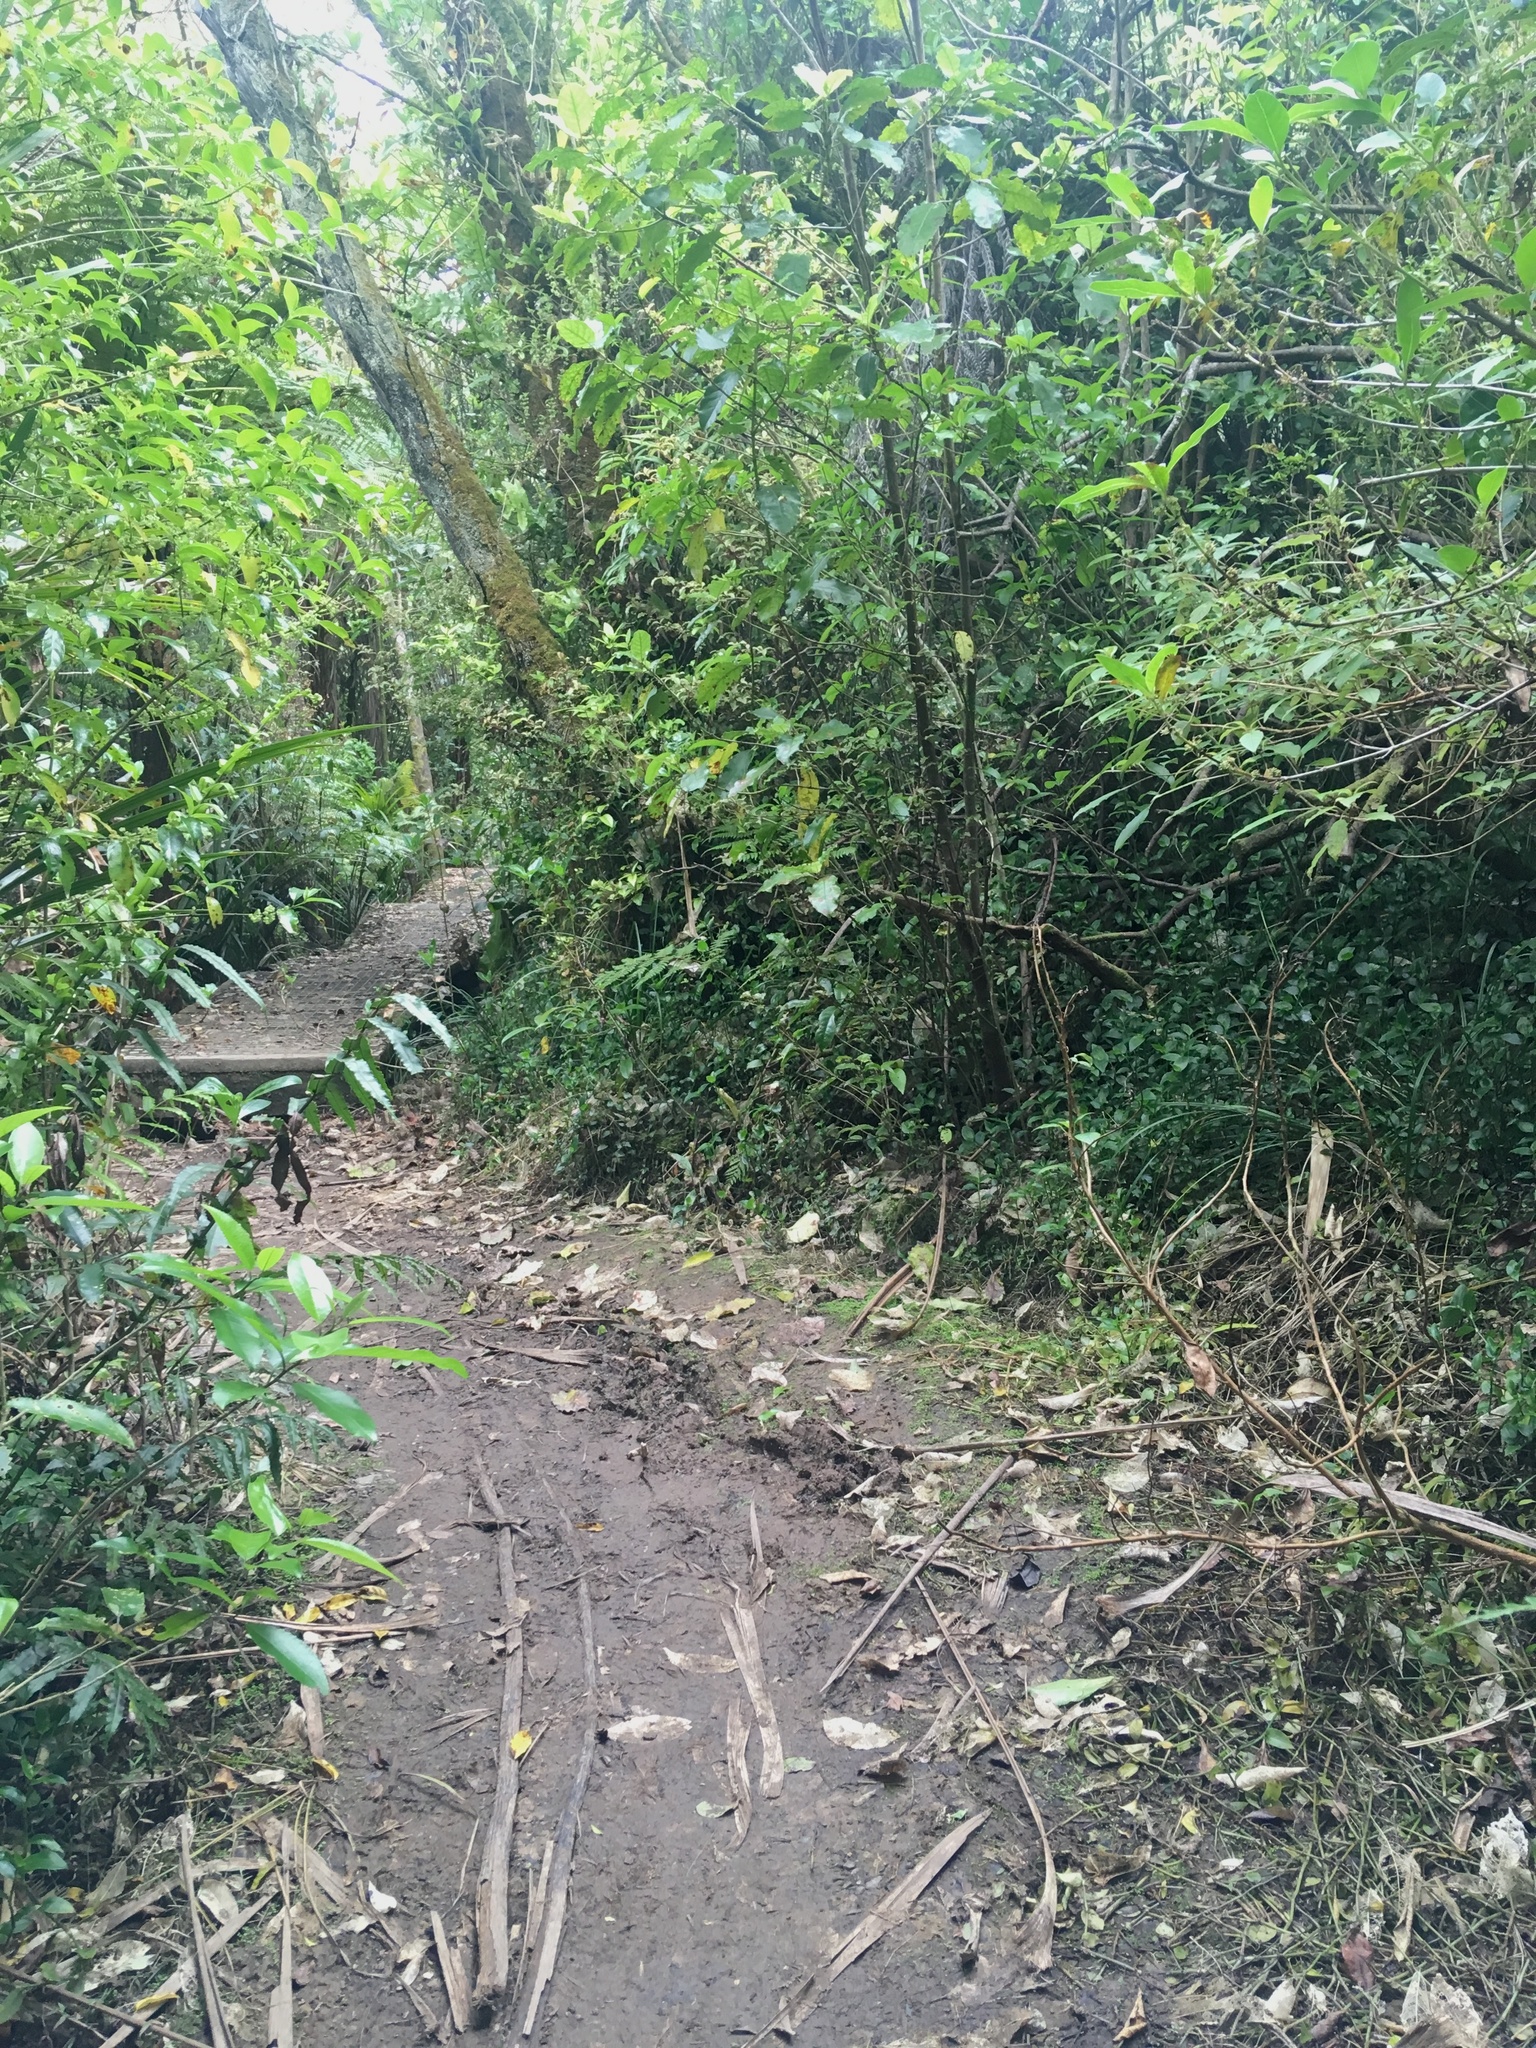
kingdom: Plantae
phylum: Tracheophyta
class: Liliopsida
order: Commelinales
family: Commelinaceae
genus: Tradescantia
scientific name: Tradescantia fluminensis
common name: Wandering-jew
